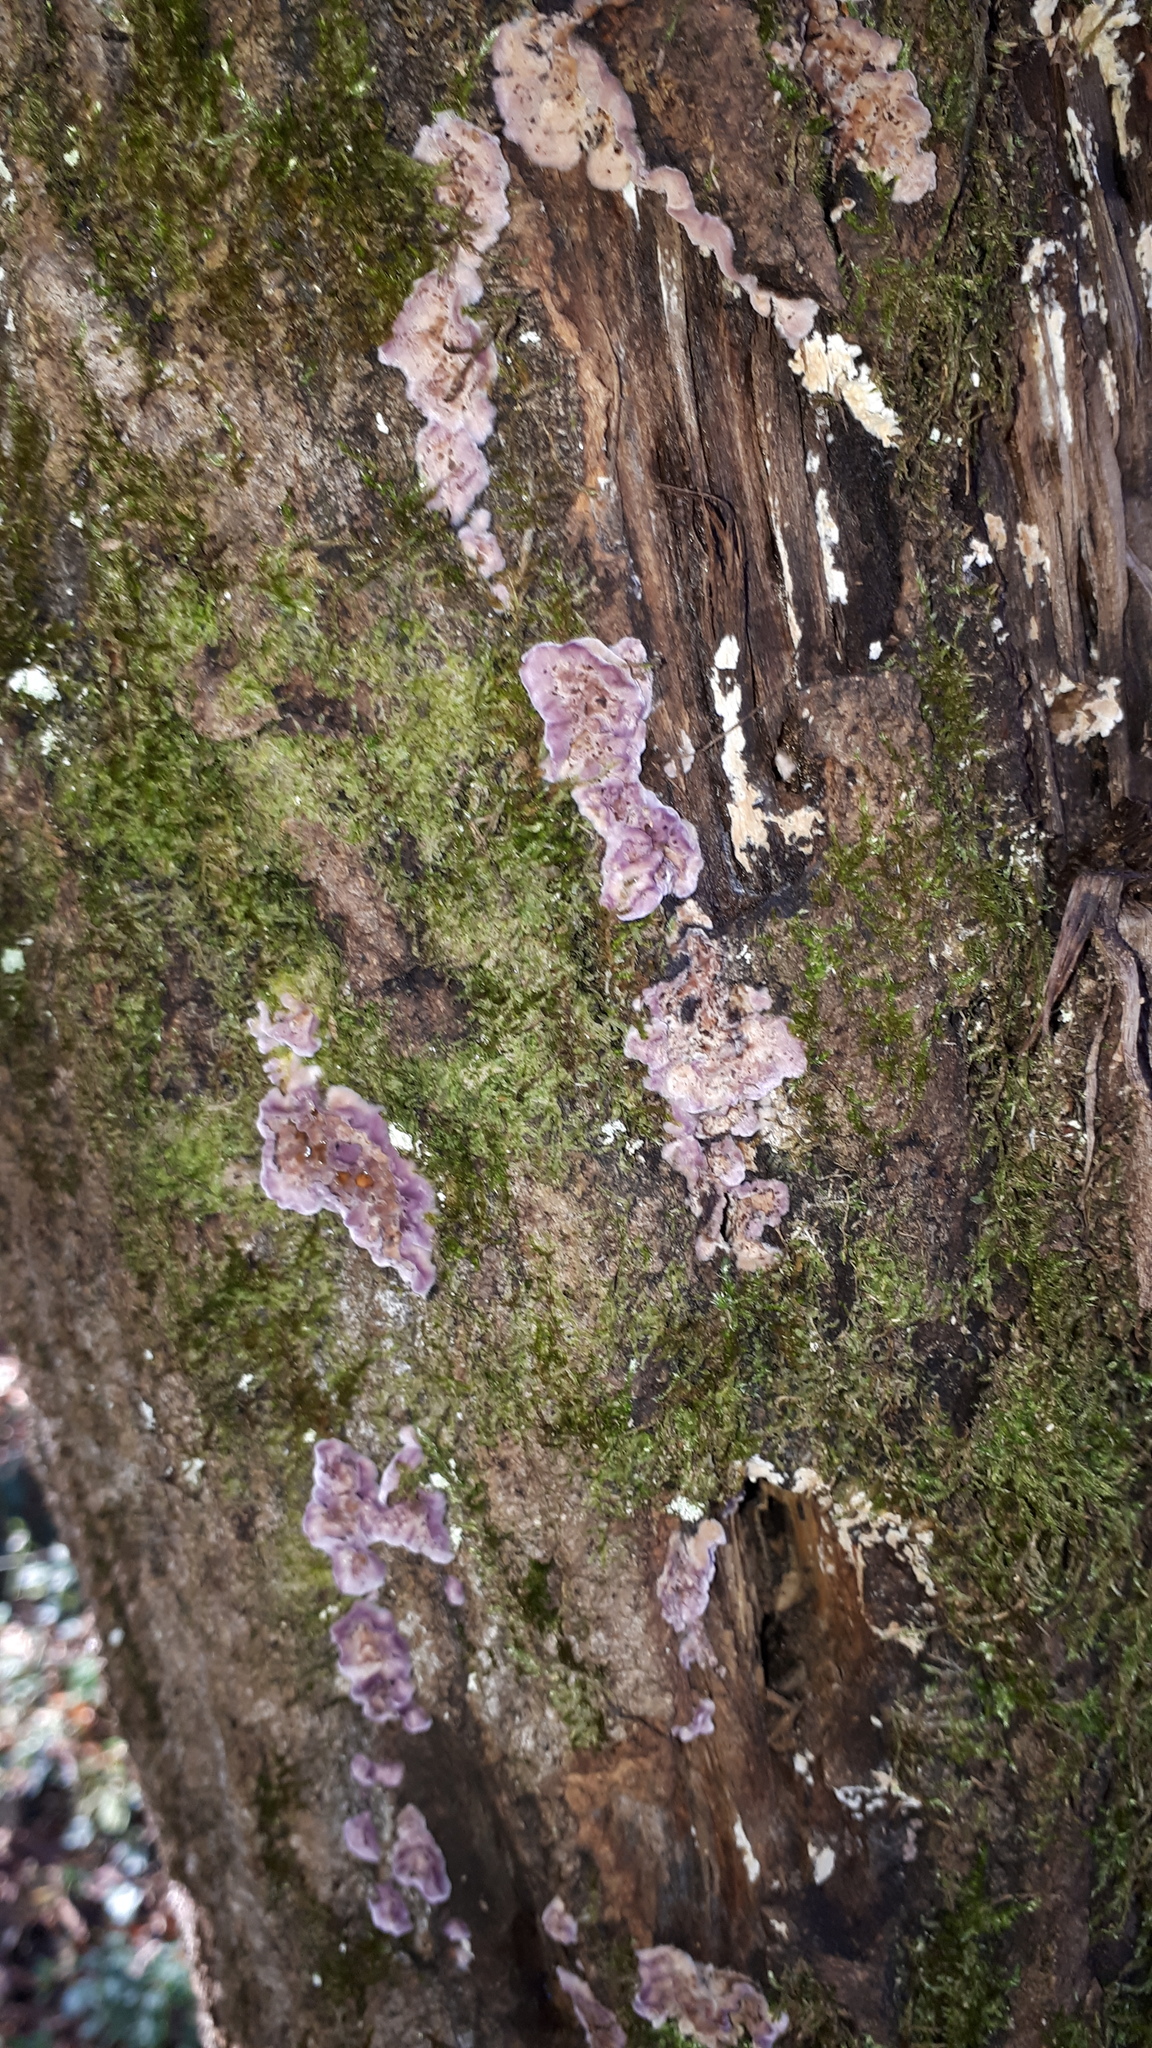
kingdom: Fungi
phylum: Basidiomycota
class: Agaricomycetes
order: Agaricales
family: Cyphellaceae
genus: Chondrostereum
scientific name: Chondrostereum purpureum
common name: Silver leaf disease
